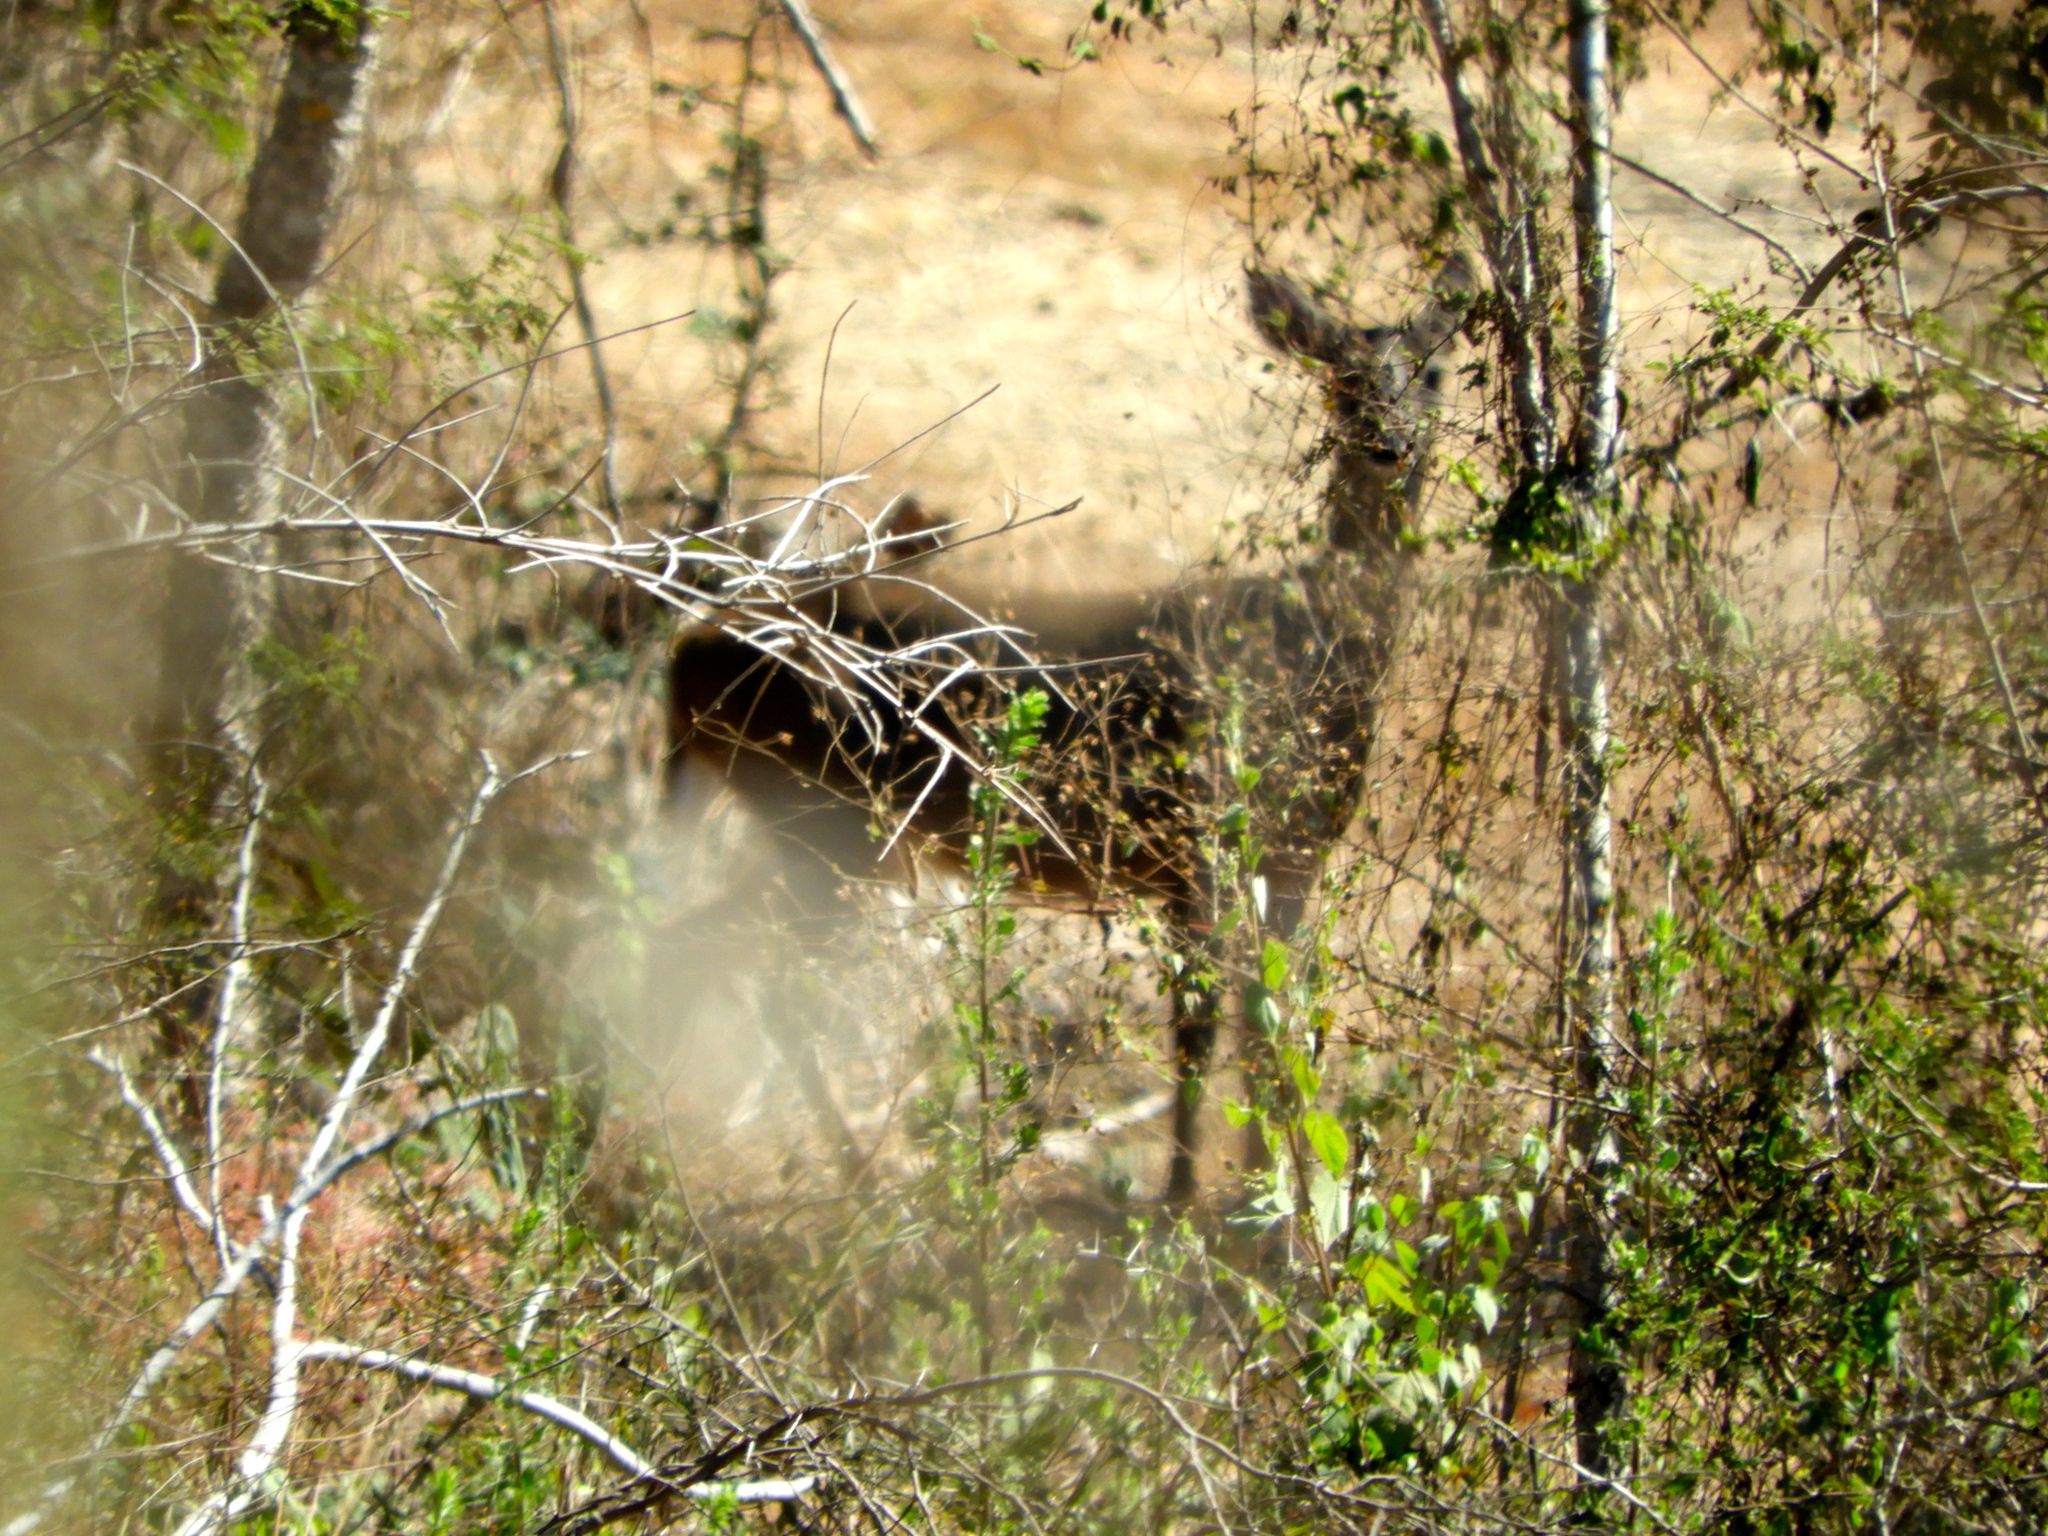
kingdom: Animalia
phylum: Chordata
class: Mammalia
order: Artiodactyla
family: Cervidae
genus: Odocoileus
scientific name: Odocoileus virginianus
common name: White-tailed deer
